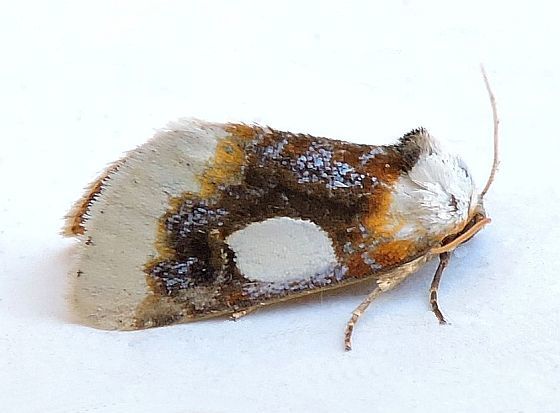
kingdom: Animalia
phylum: Arthropoda
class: Insecta
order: Lepidoptera
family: Noctuidae
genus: Chrysoecia
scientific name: Chrysoecia gladiola
